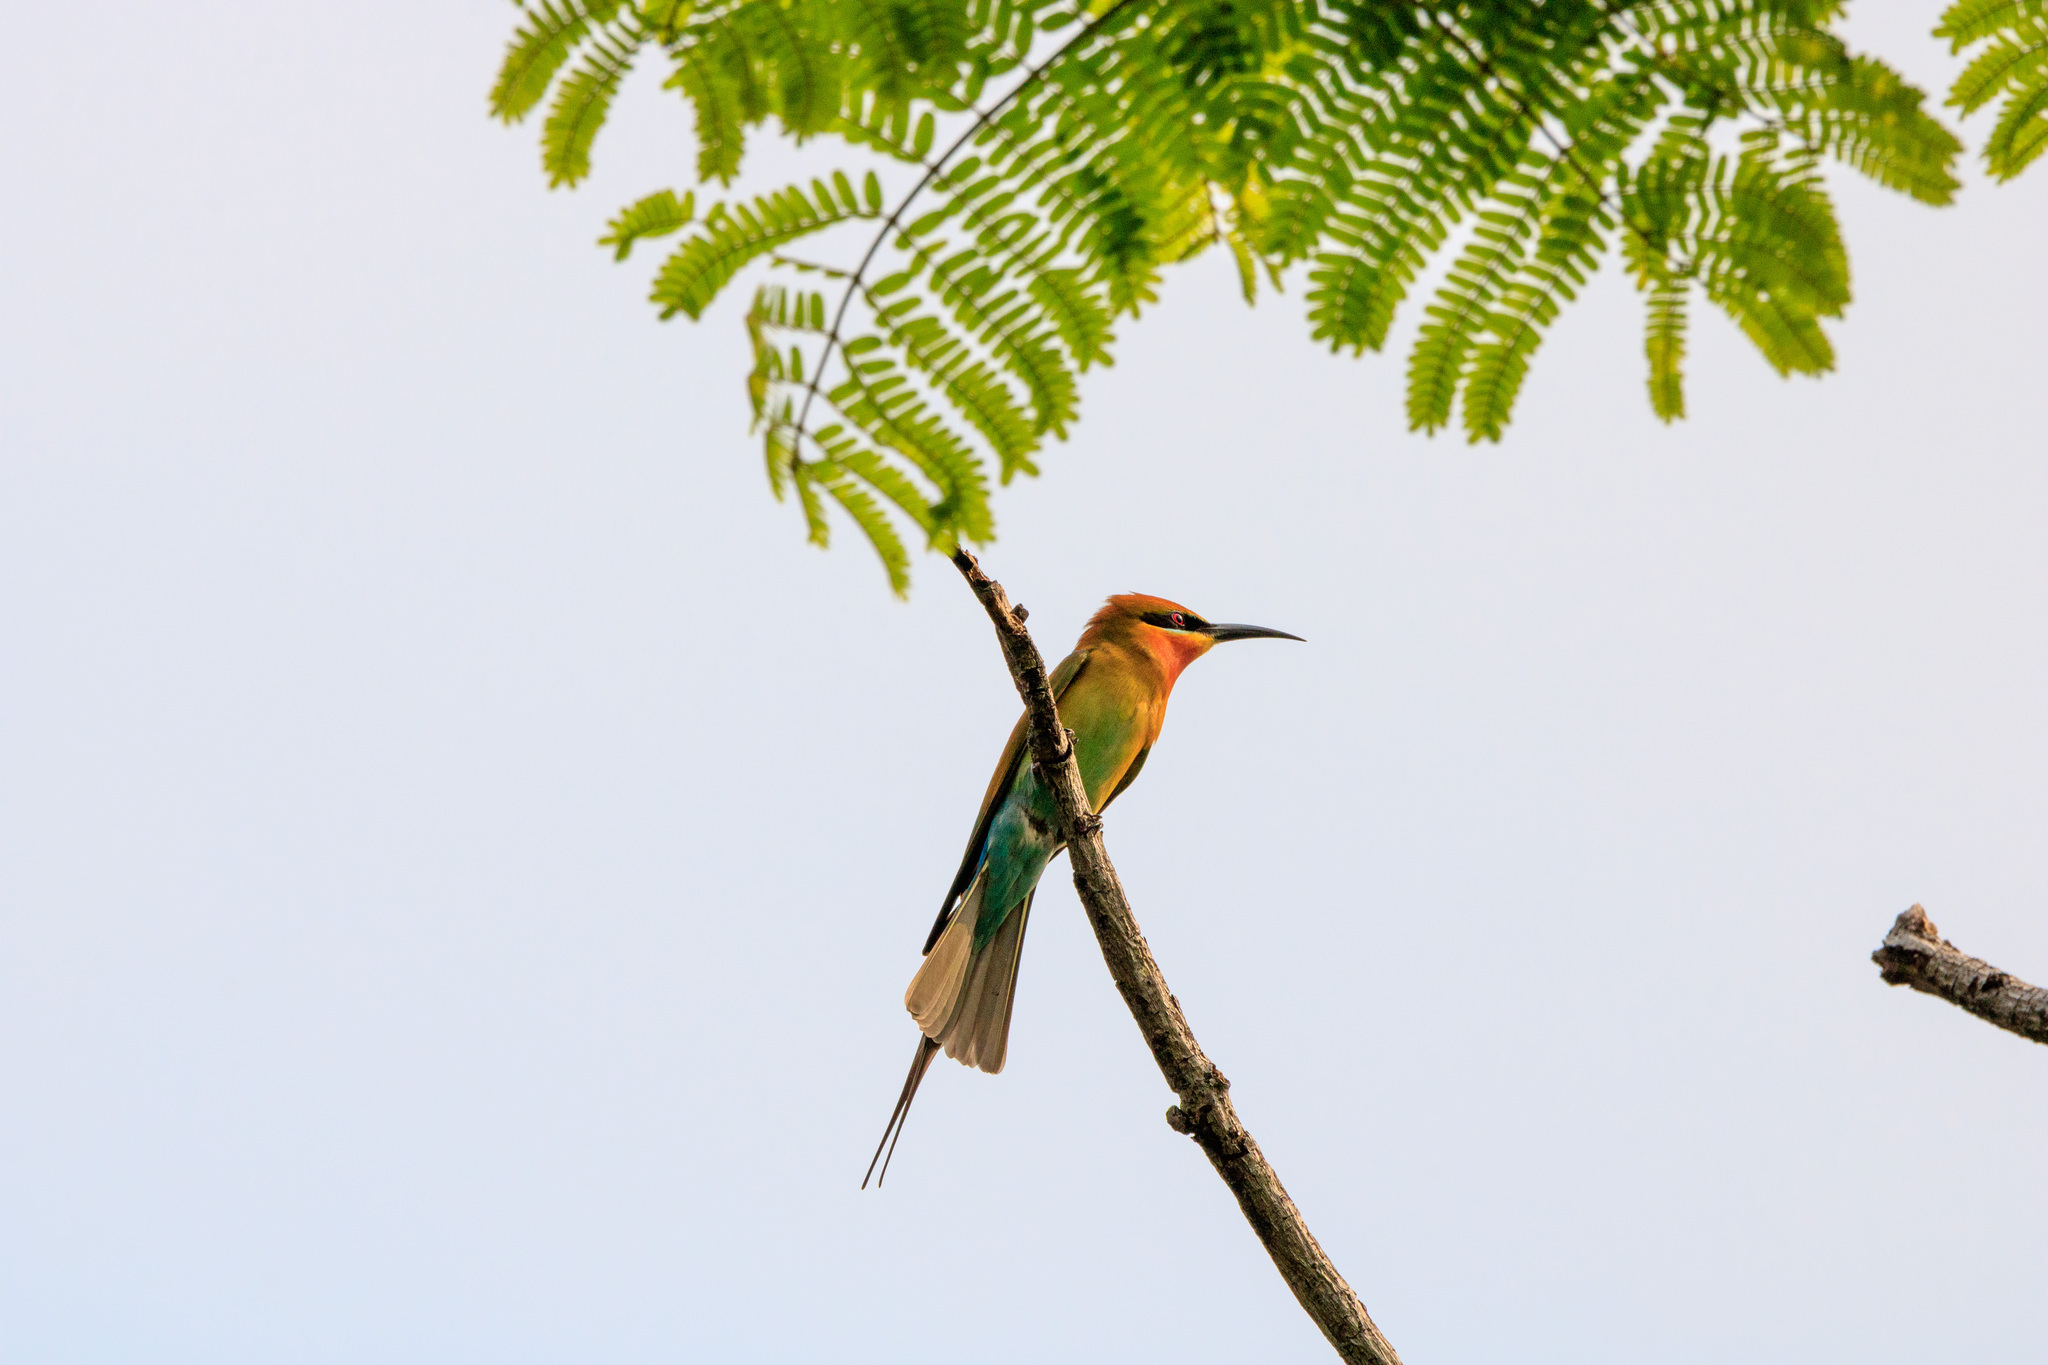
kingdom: Animalia
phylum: Chordata
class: Aves
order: Coraciiformes
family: Meropidae
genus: Merops
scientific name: Merops philippinus
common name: Blue-tailed bee-eater
